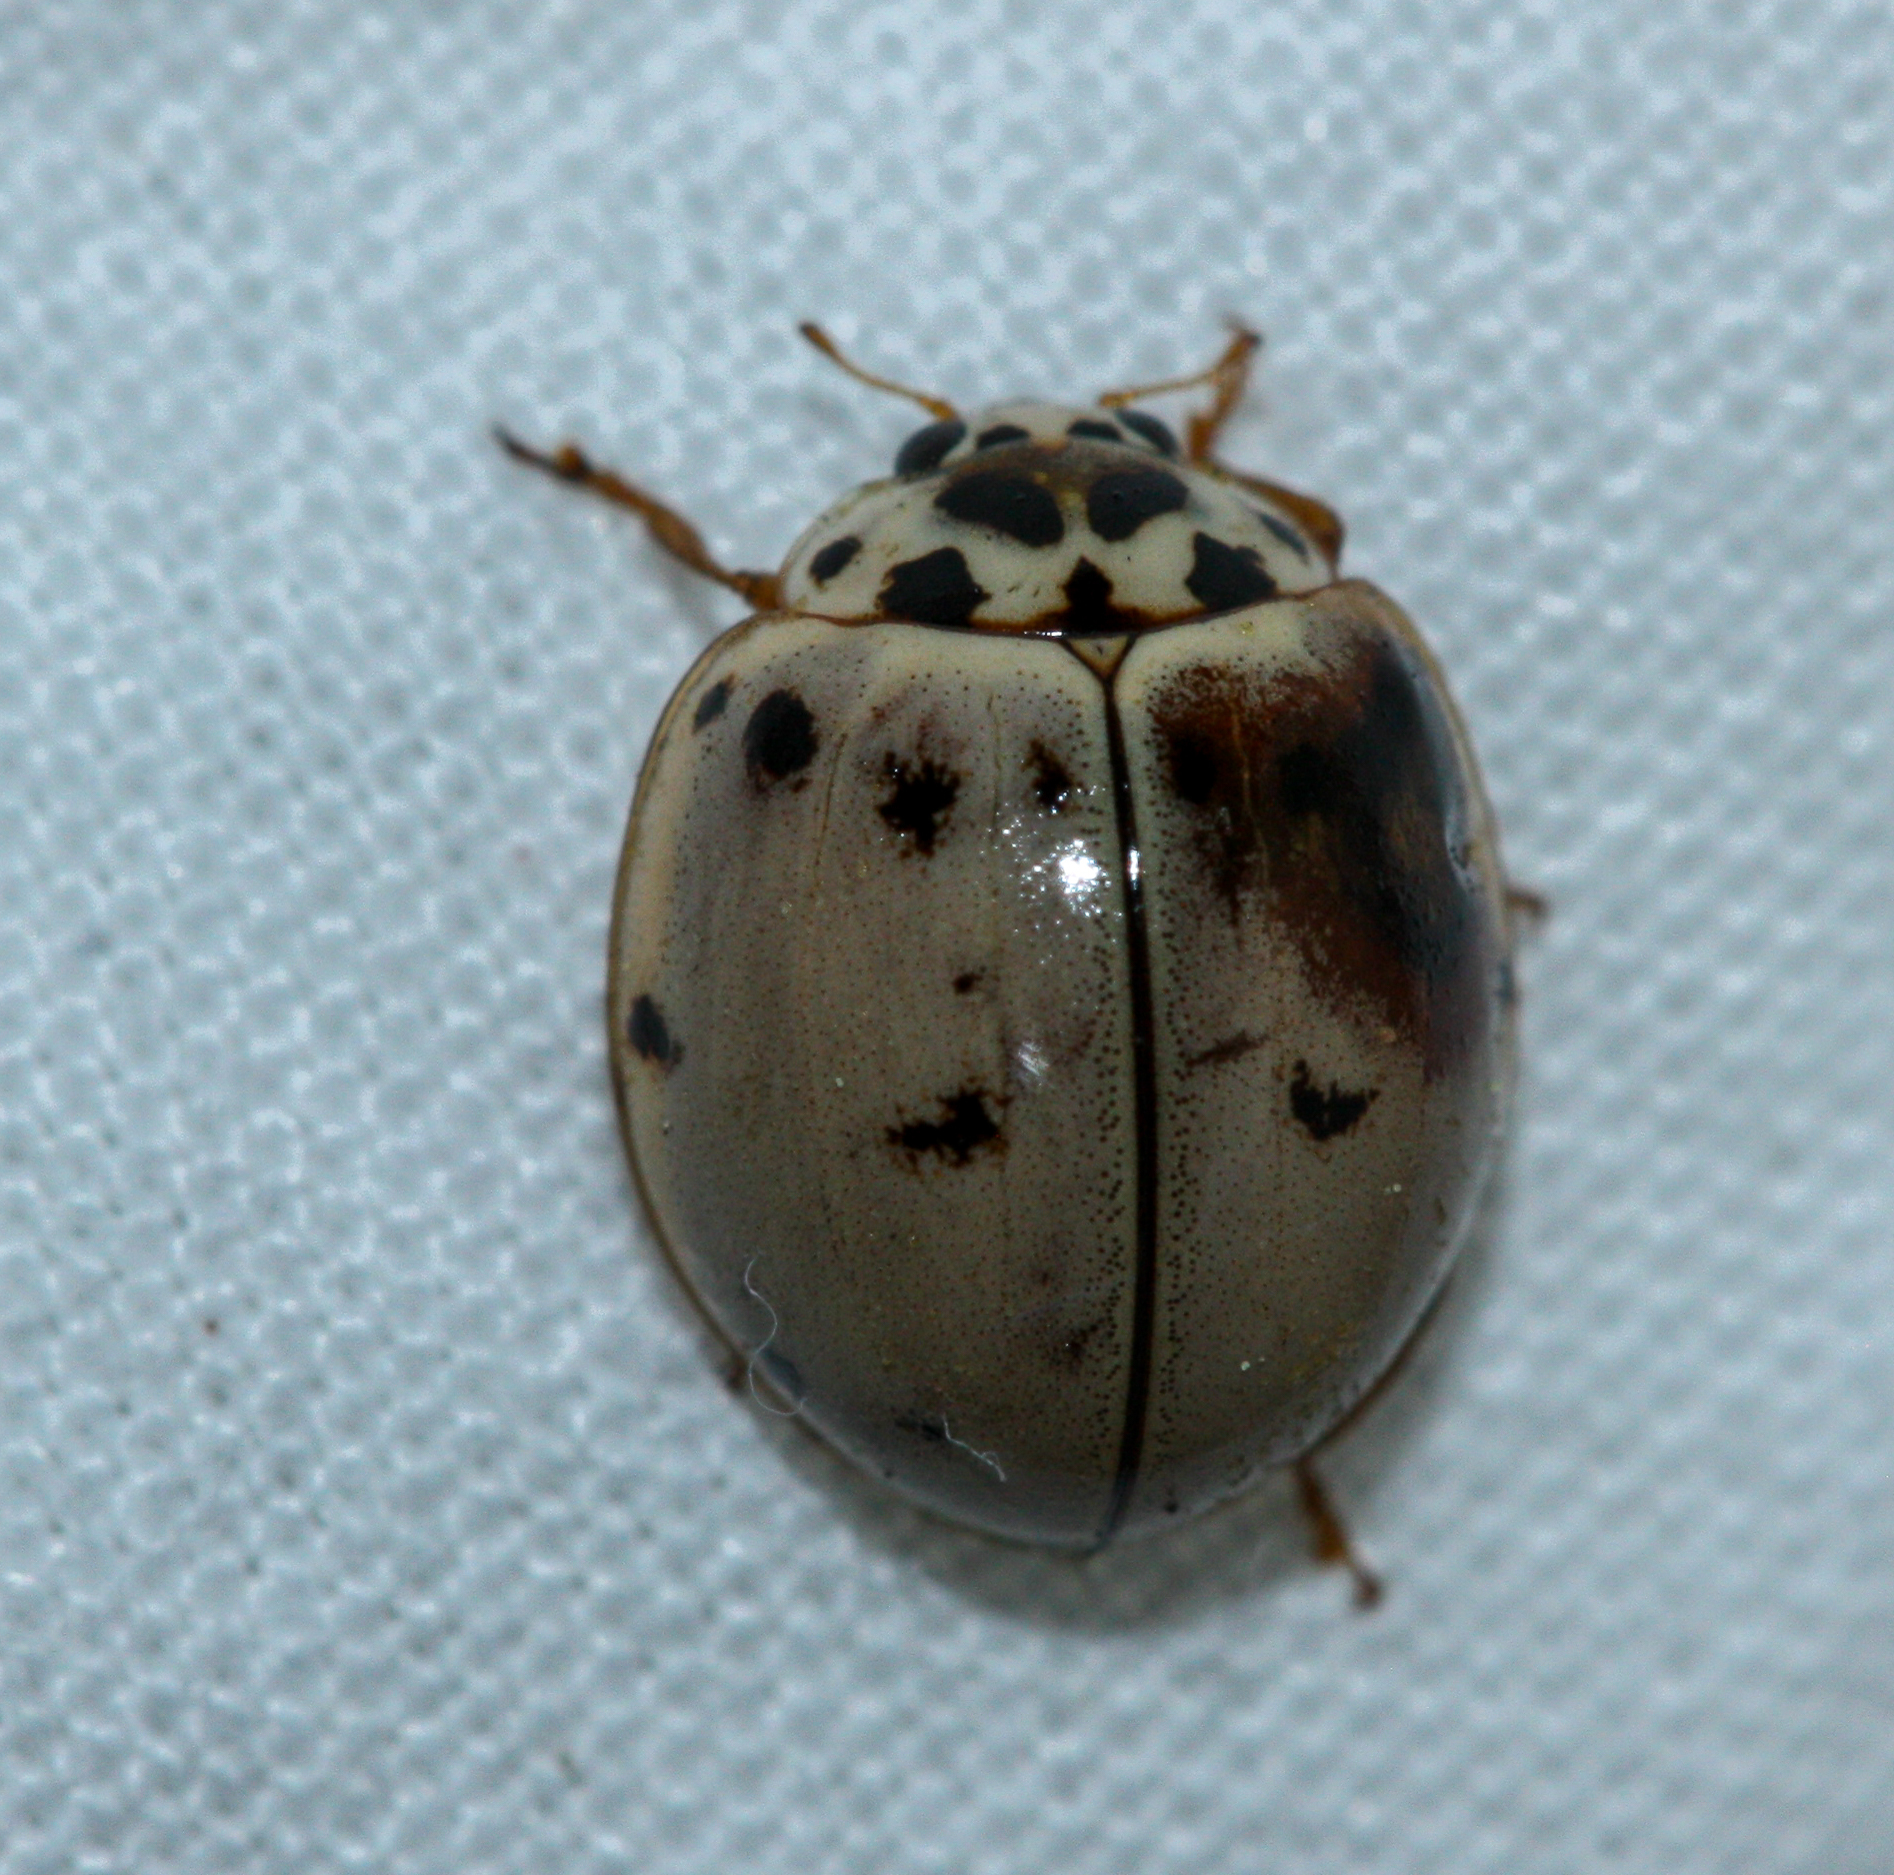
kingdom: Animalia
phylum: Arthropoda
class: Insecta
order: Coleoptera
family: Coccinellidae
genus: Olla
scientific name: Olla v-nigrum
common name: Ashy gray lady beetle
